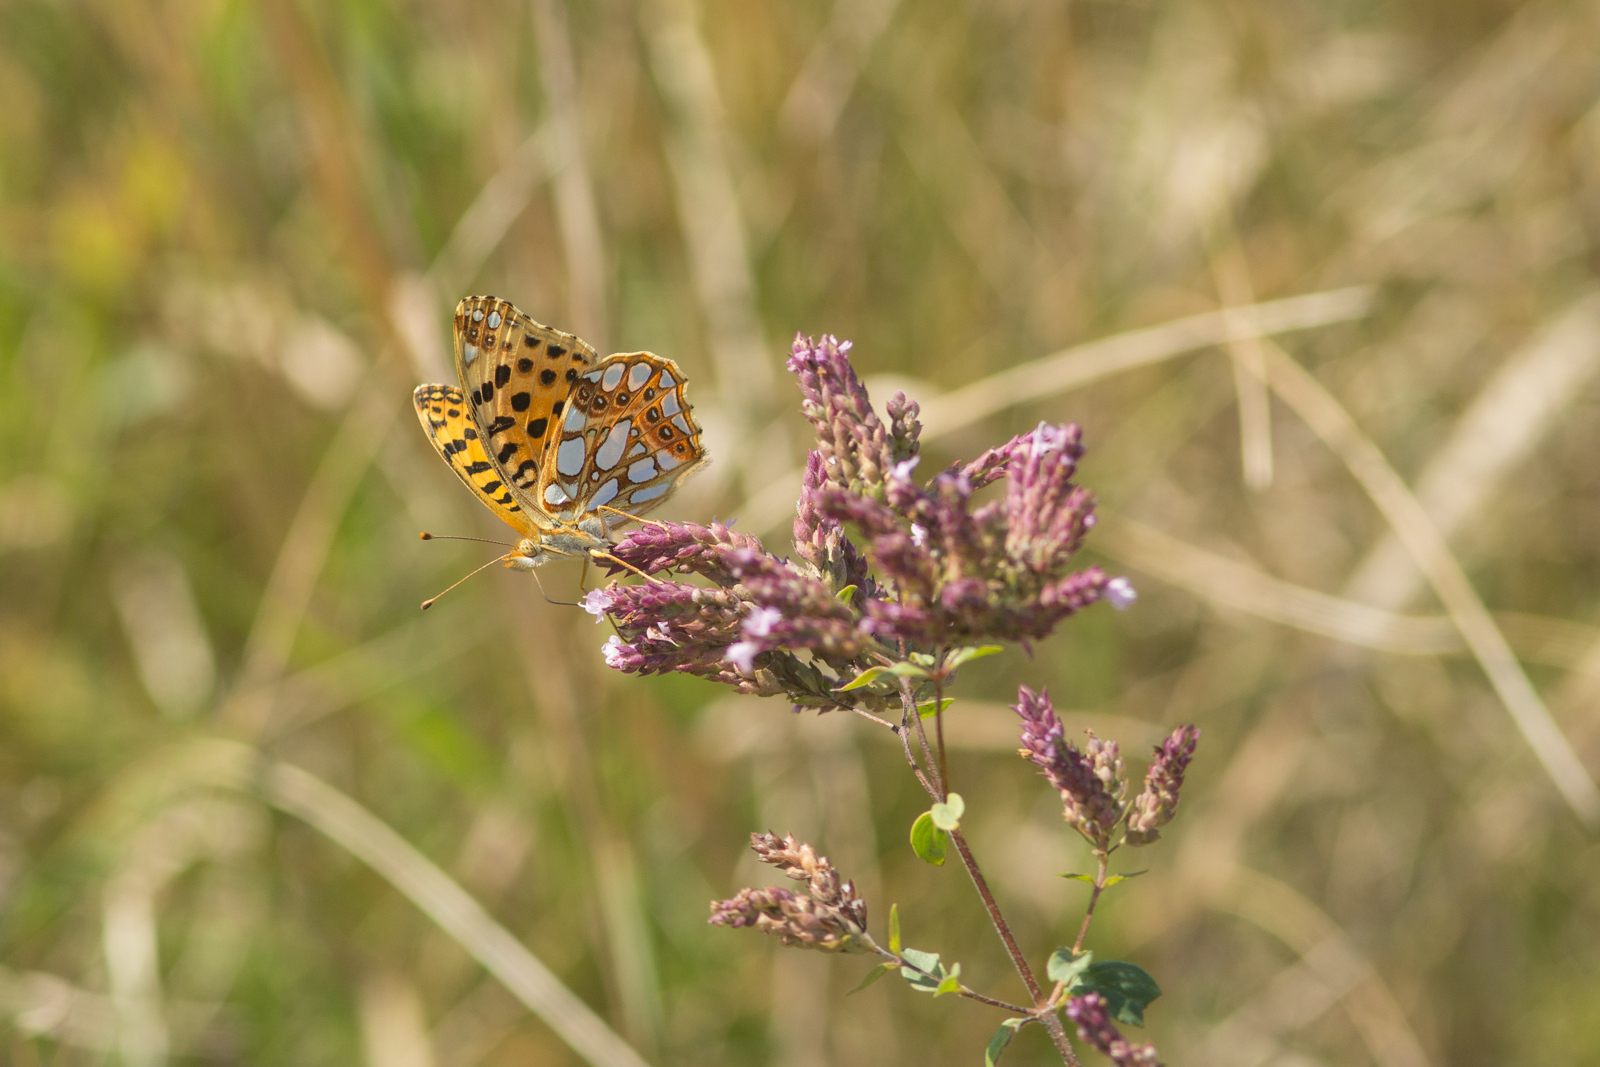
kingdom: Animalia
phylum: Arthropoda
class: Insecta
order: Lepidoptera
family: Nymphalidae
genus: Issoria
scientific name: Issoria lathonia
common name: Queen of spain fritillary
